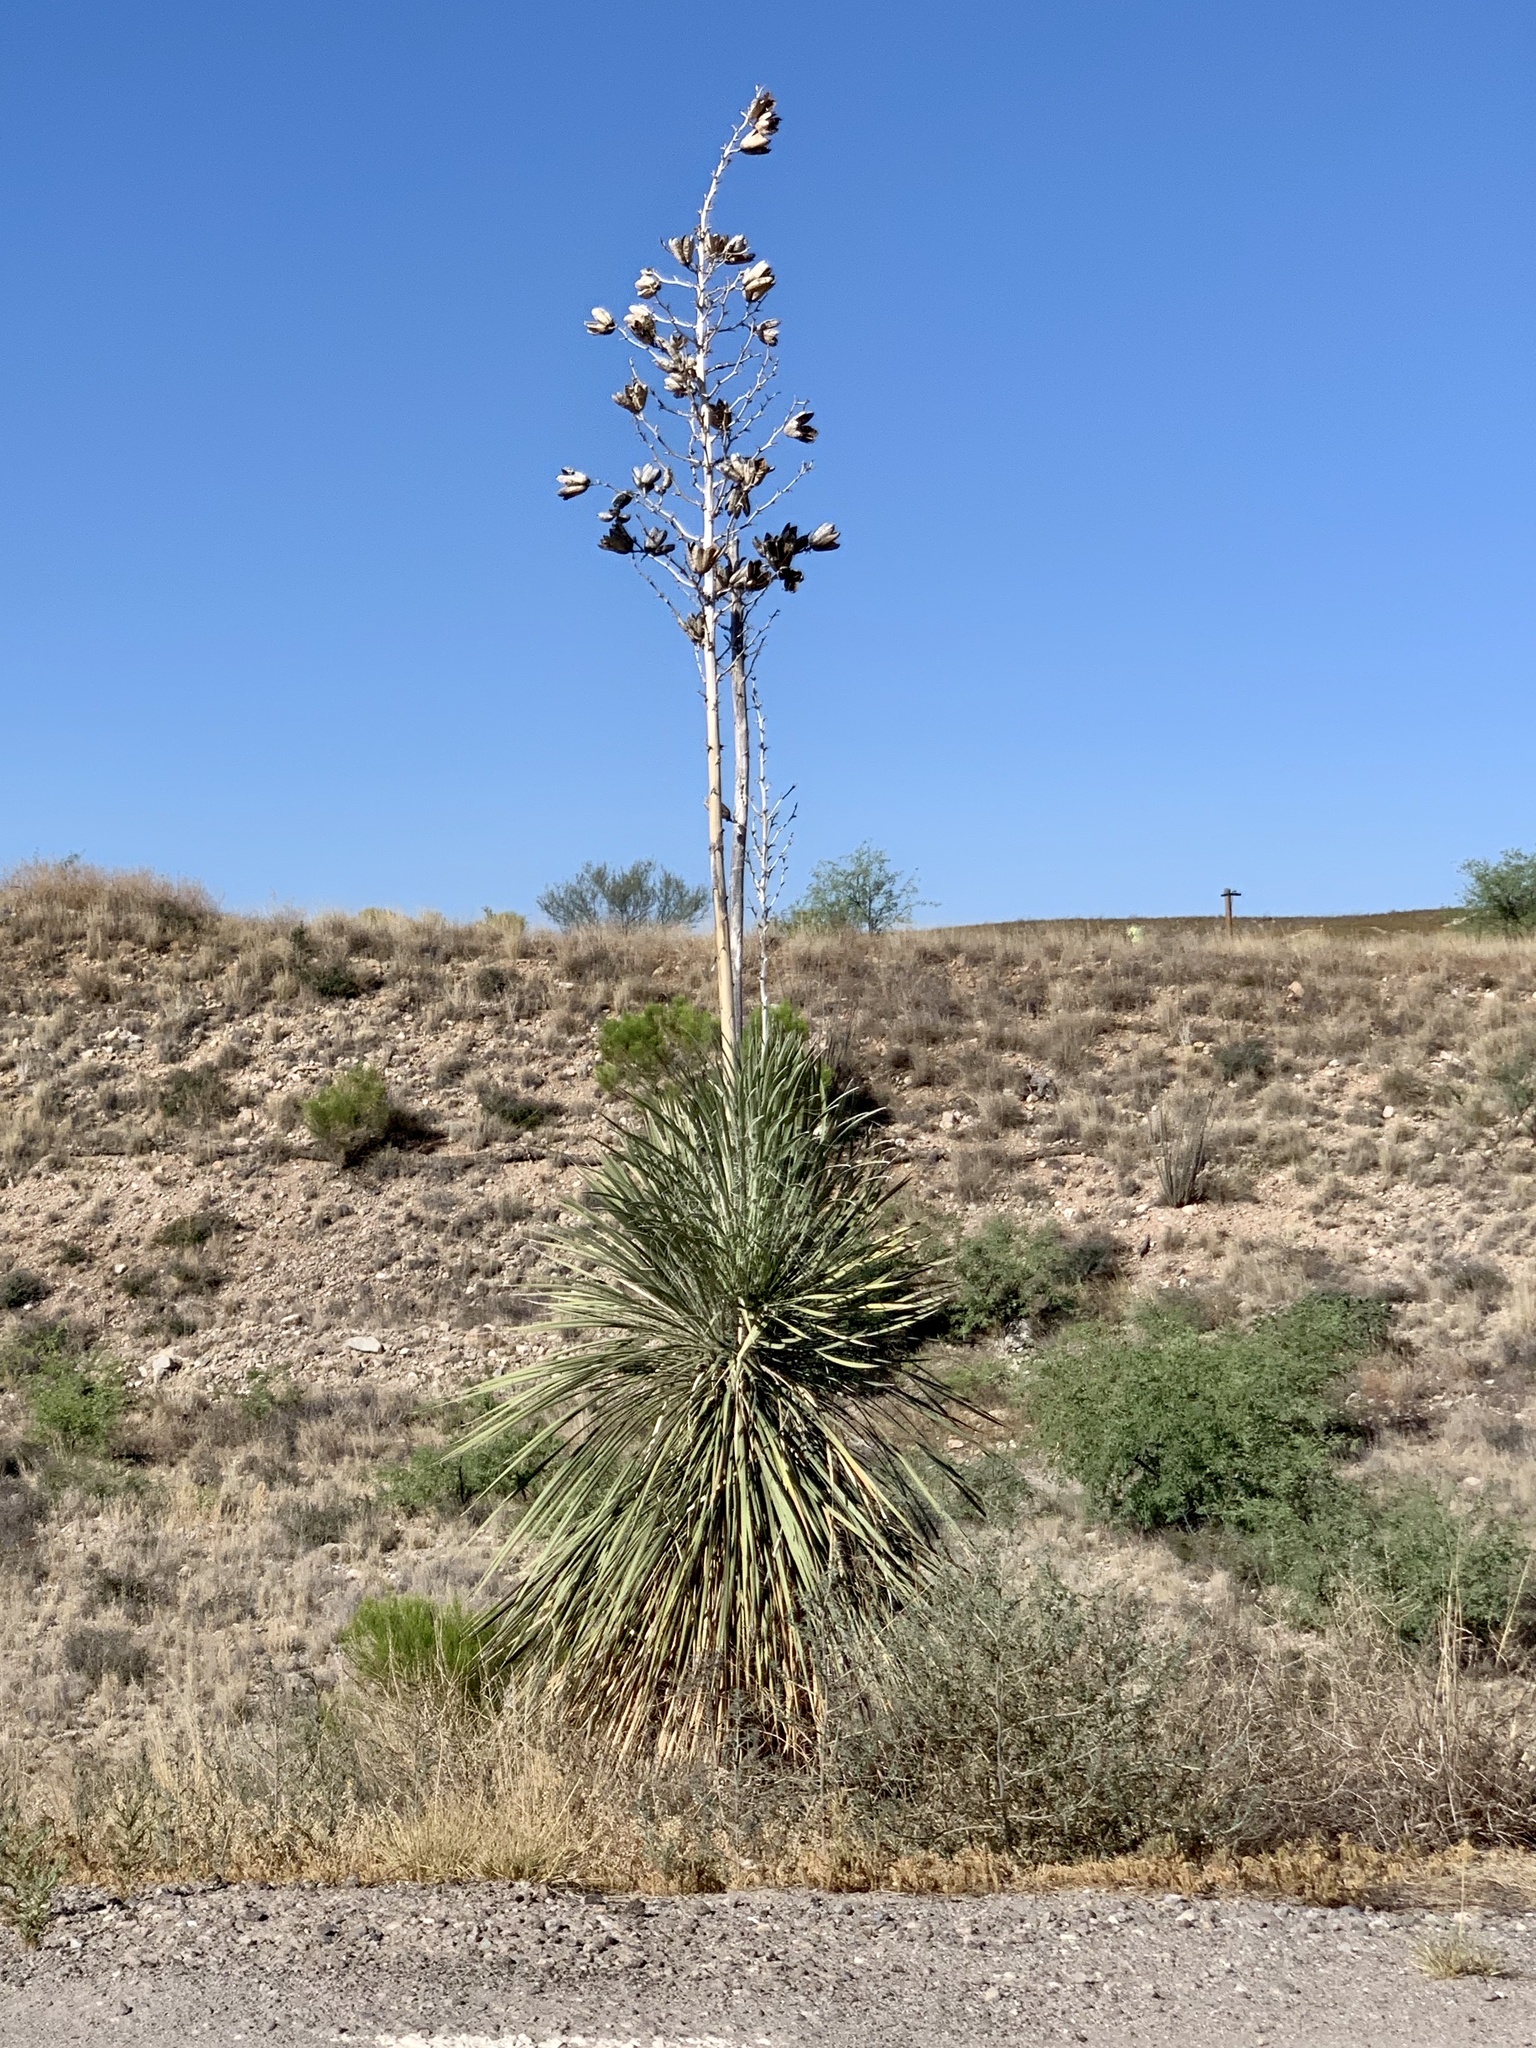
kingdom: Plantae
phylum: Tracheophyta
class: Liliopsida
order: Asparagales
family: Asparagaceae
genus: Yucca
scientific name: Yucca elata
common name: Palmella
